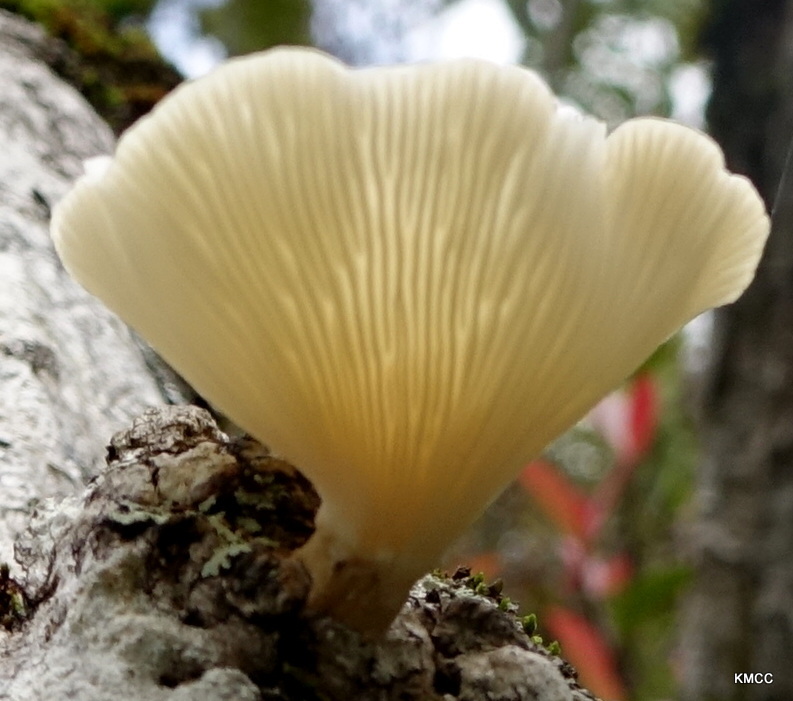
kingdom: Fungi
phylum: Basidiomycota
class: Agaricomycetes
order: Polyporales
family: Polyporaceae
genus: Lentinus
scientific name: Lentinus sajor-caju
